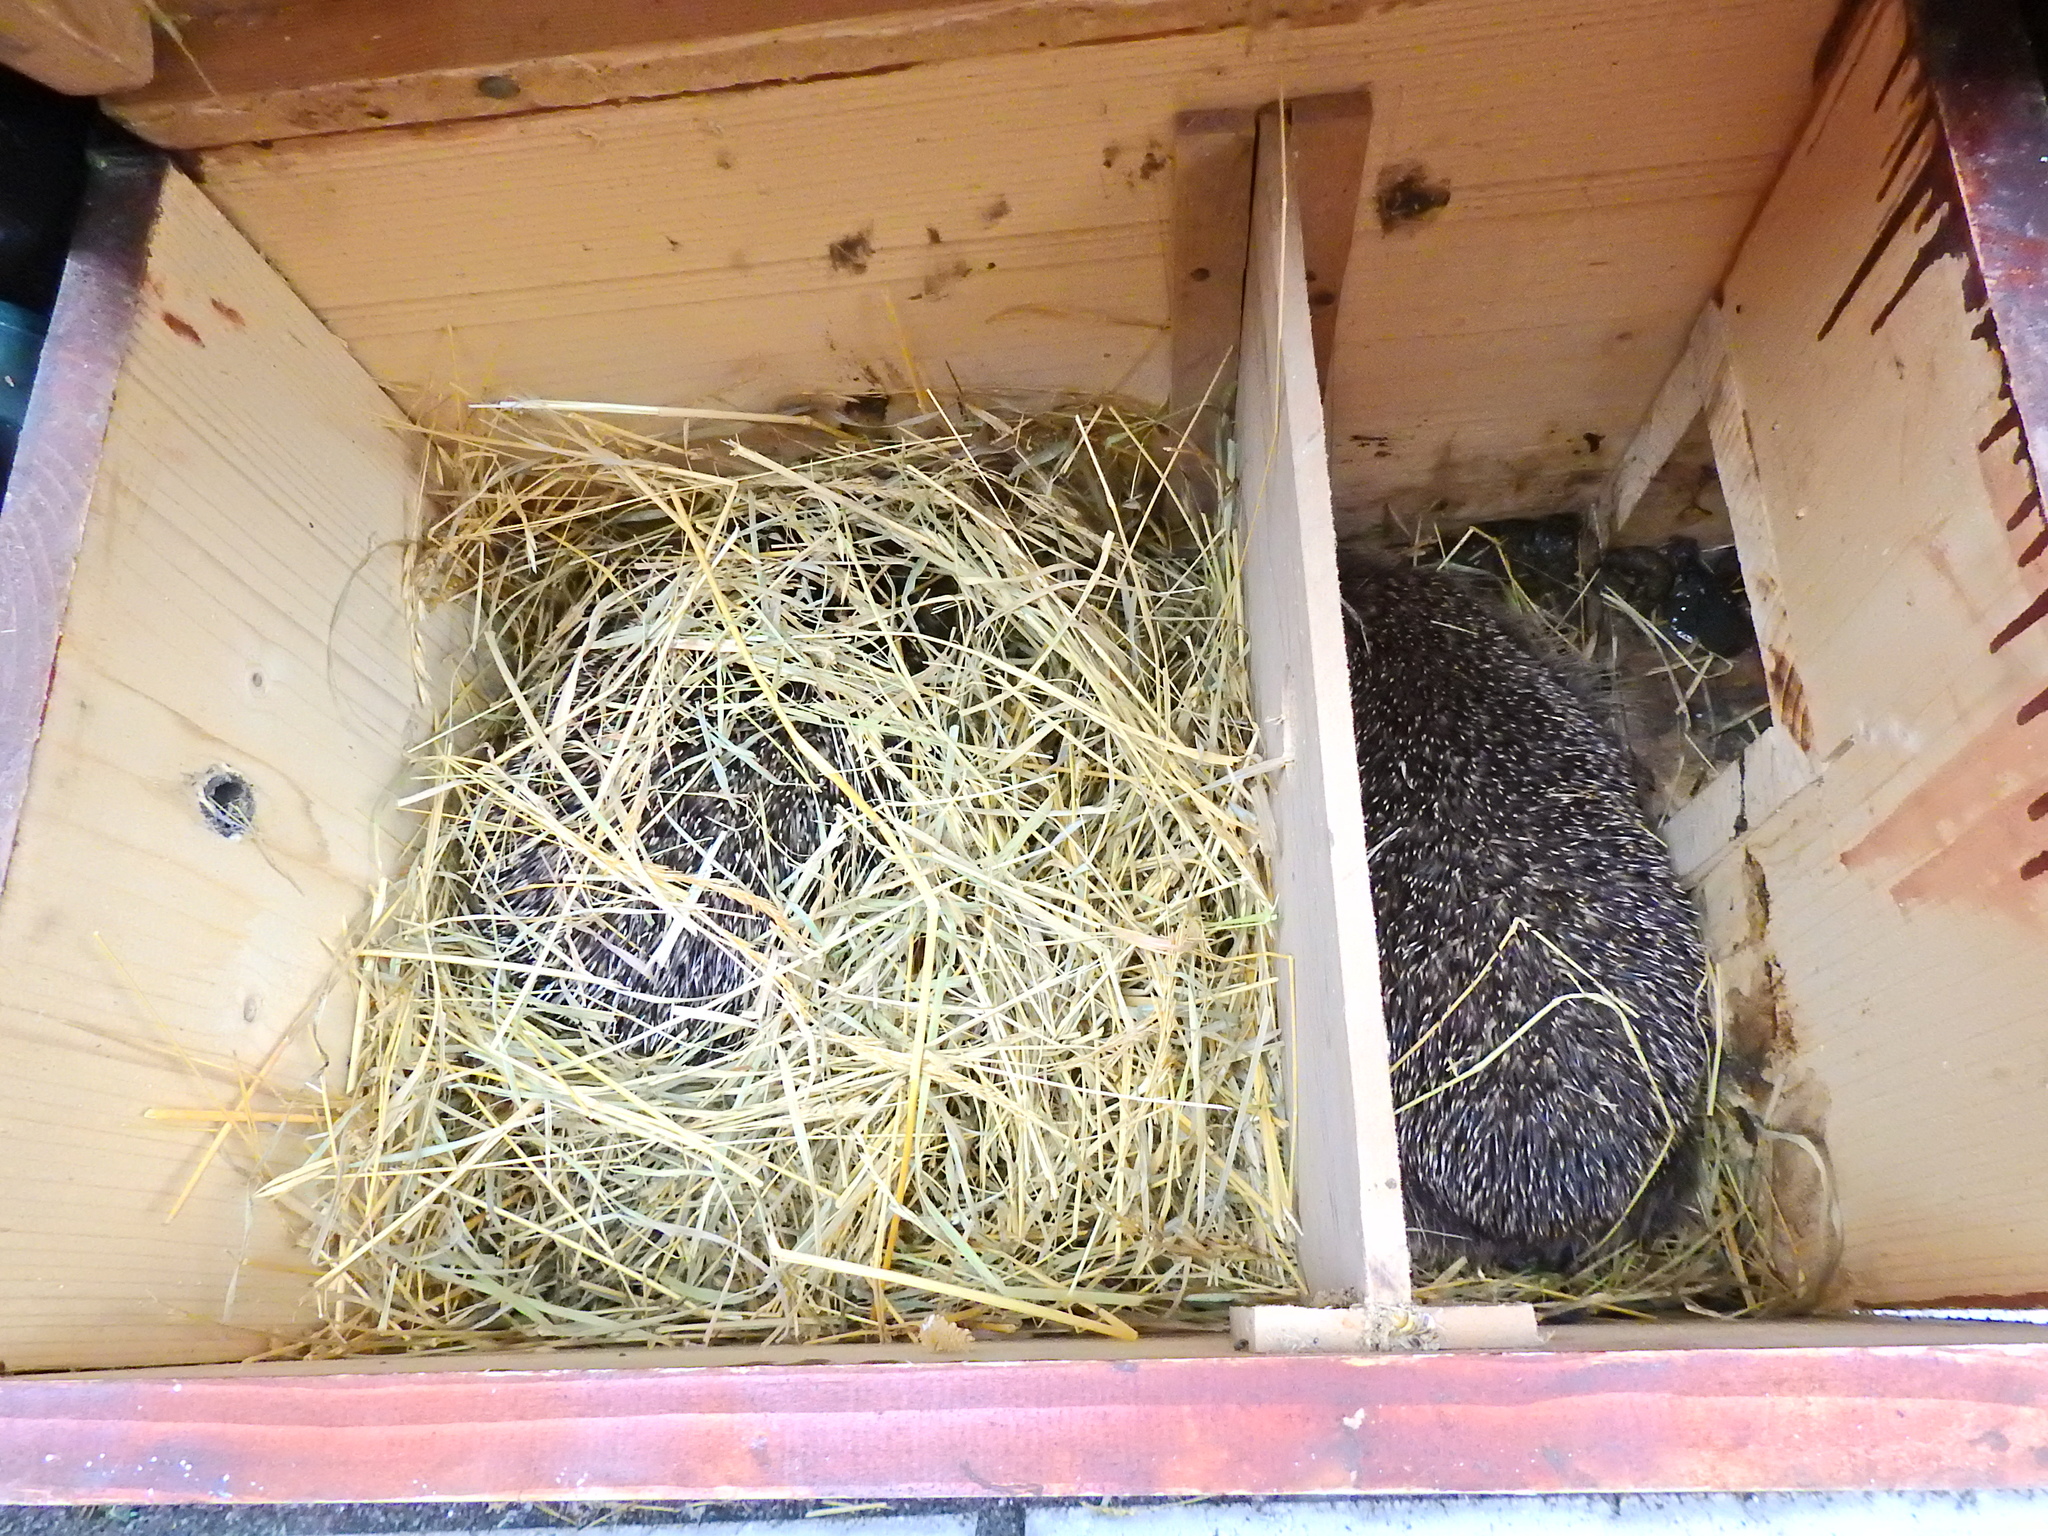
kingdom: Animalia
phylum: Chordata
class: Mammalia
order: Erinaceomorpha
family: Erinaceidae
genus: Erinaceus
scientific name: Erinaceus europaeus
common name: West european hedgehog
